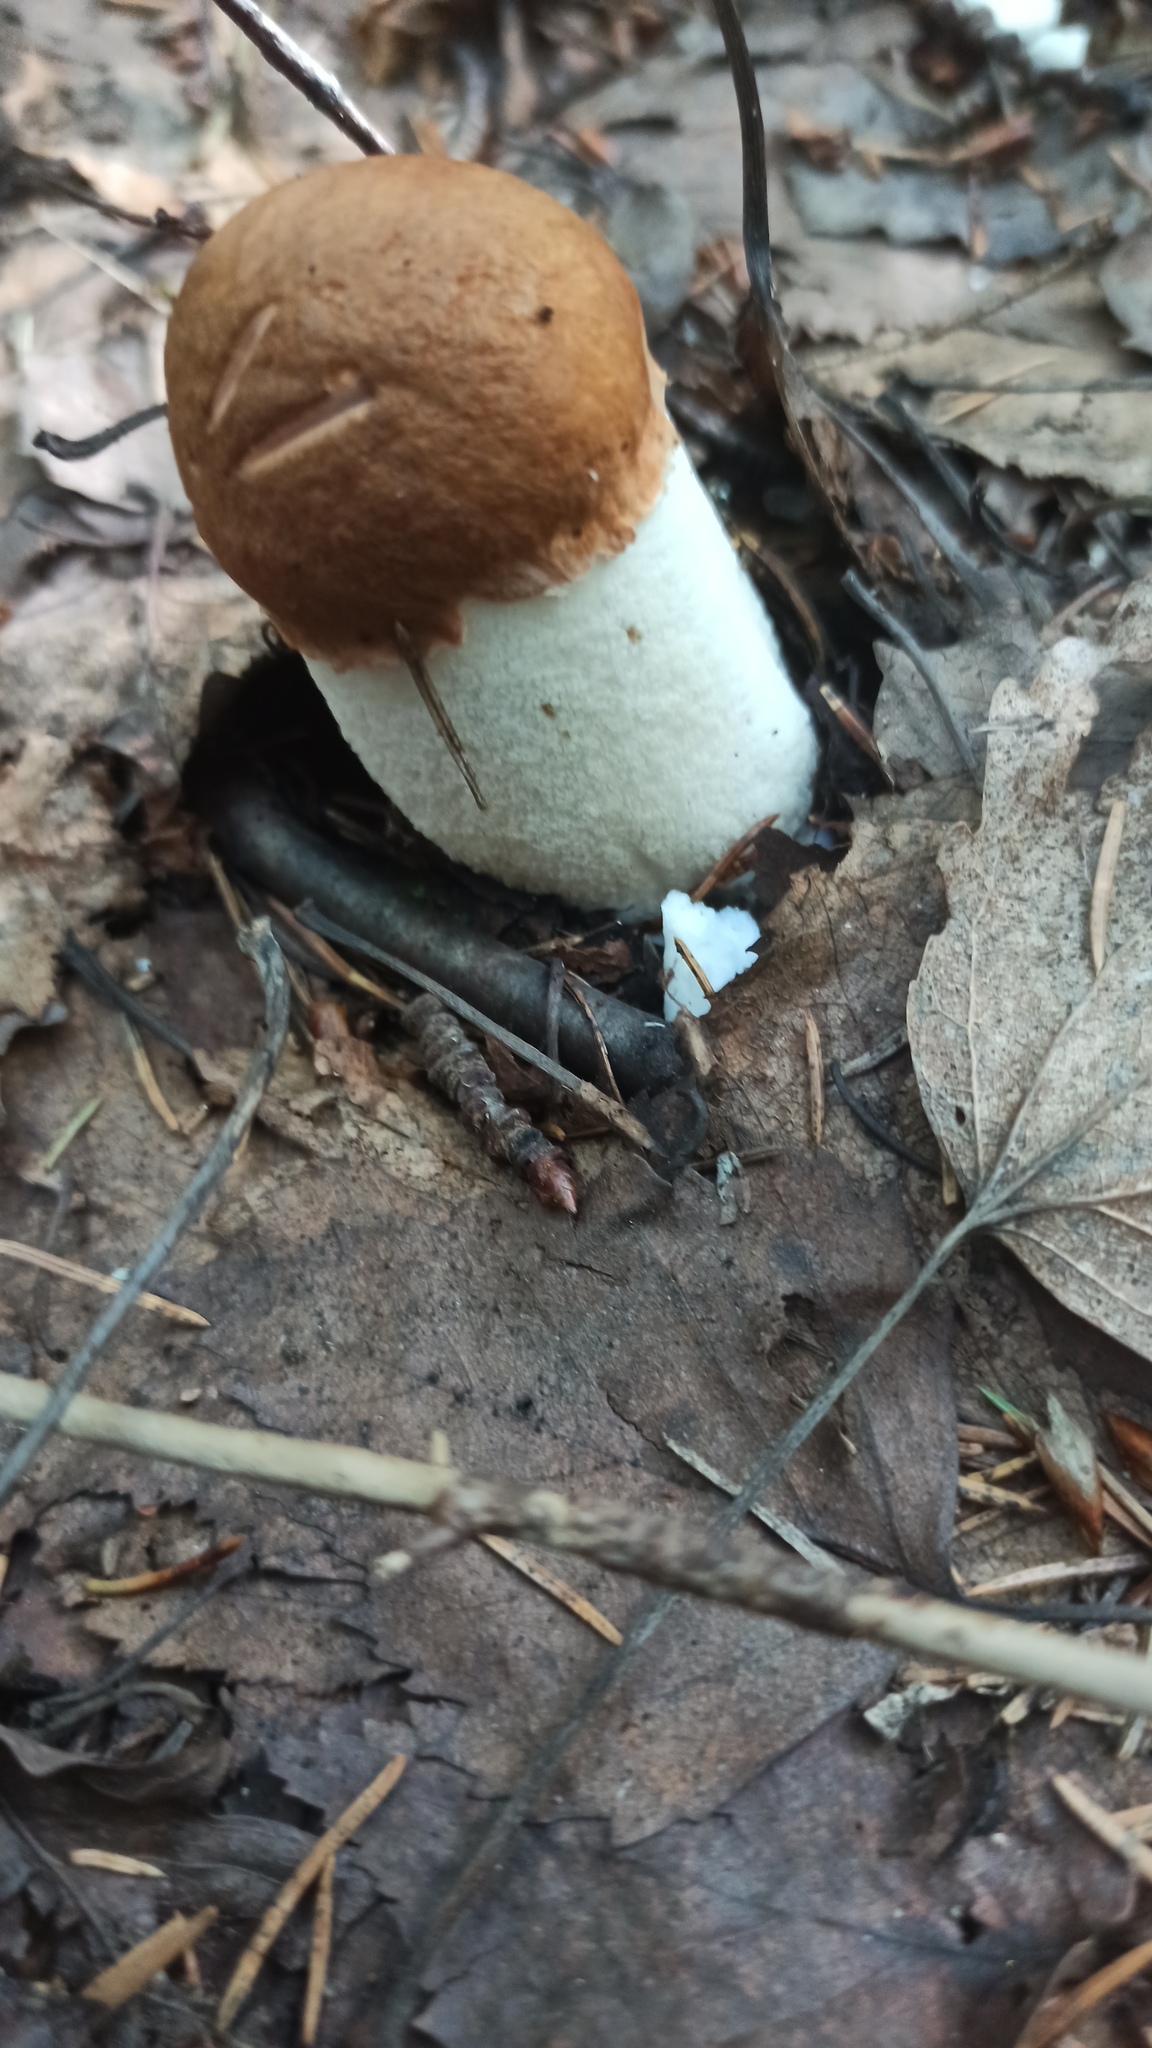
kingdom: Fungi
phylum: Basidiomycota
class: Agaricomycetes
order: Boletales
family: Boletaceae
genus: Leccinum
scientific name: Leccinum albostipitatum
